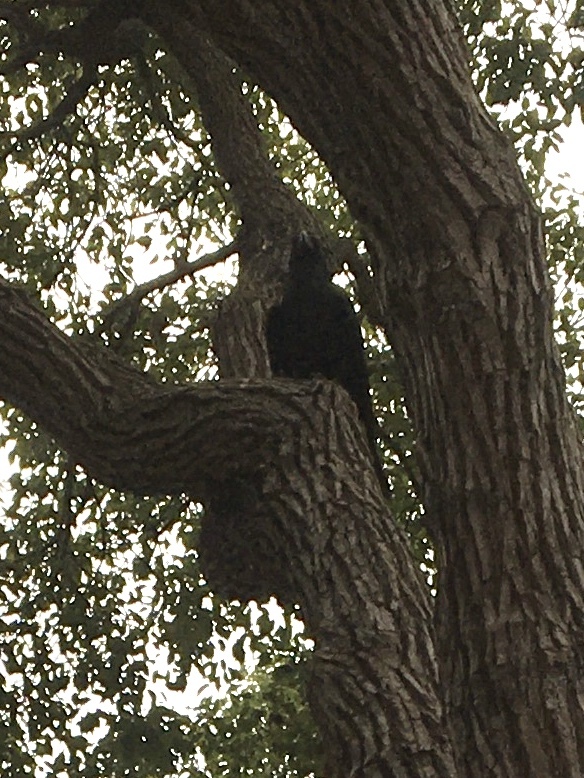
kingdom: Animalia
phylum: Chordata
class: Aves
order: Passeriformes
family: Corvidae
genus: Corvus
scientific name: Corvus corax
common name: Common raven
